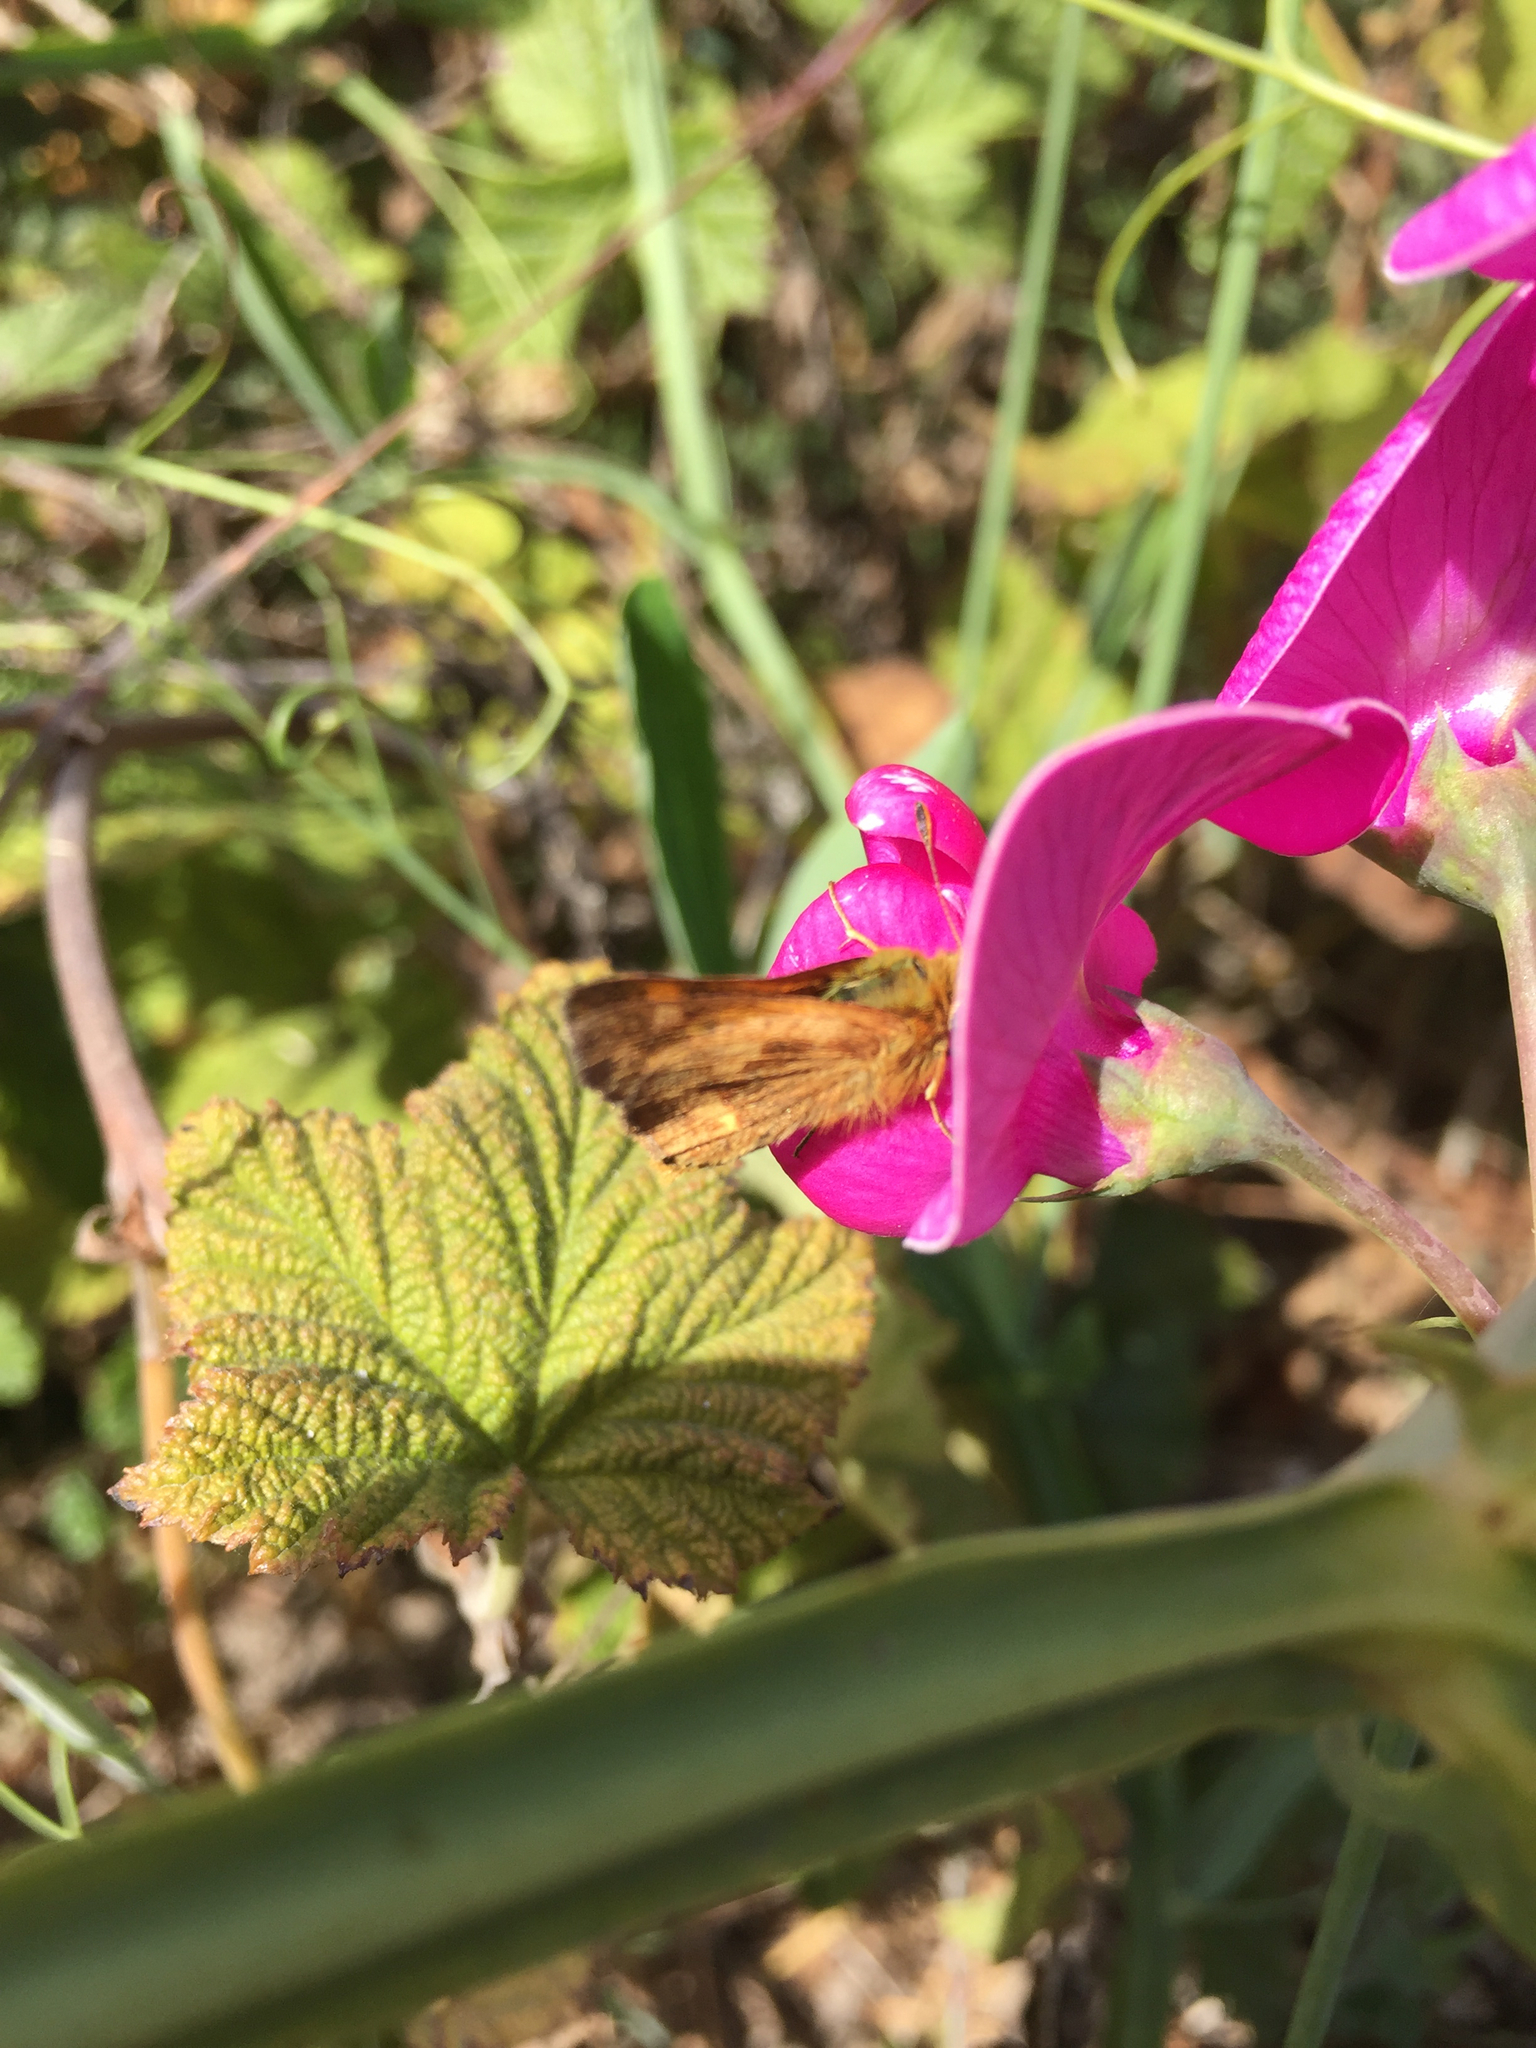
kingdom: Animalia
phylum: Arthropoda
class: Insecta
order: Lepidoptera
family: Hesperiidae
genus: Ochlodes
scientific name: Ochlodes sylvanoides
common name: Woodland skipper
